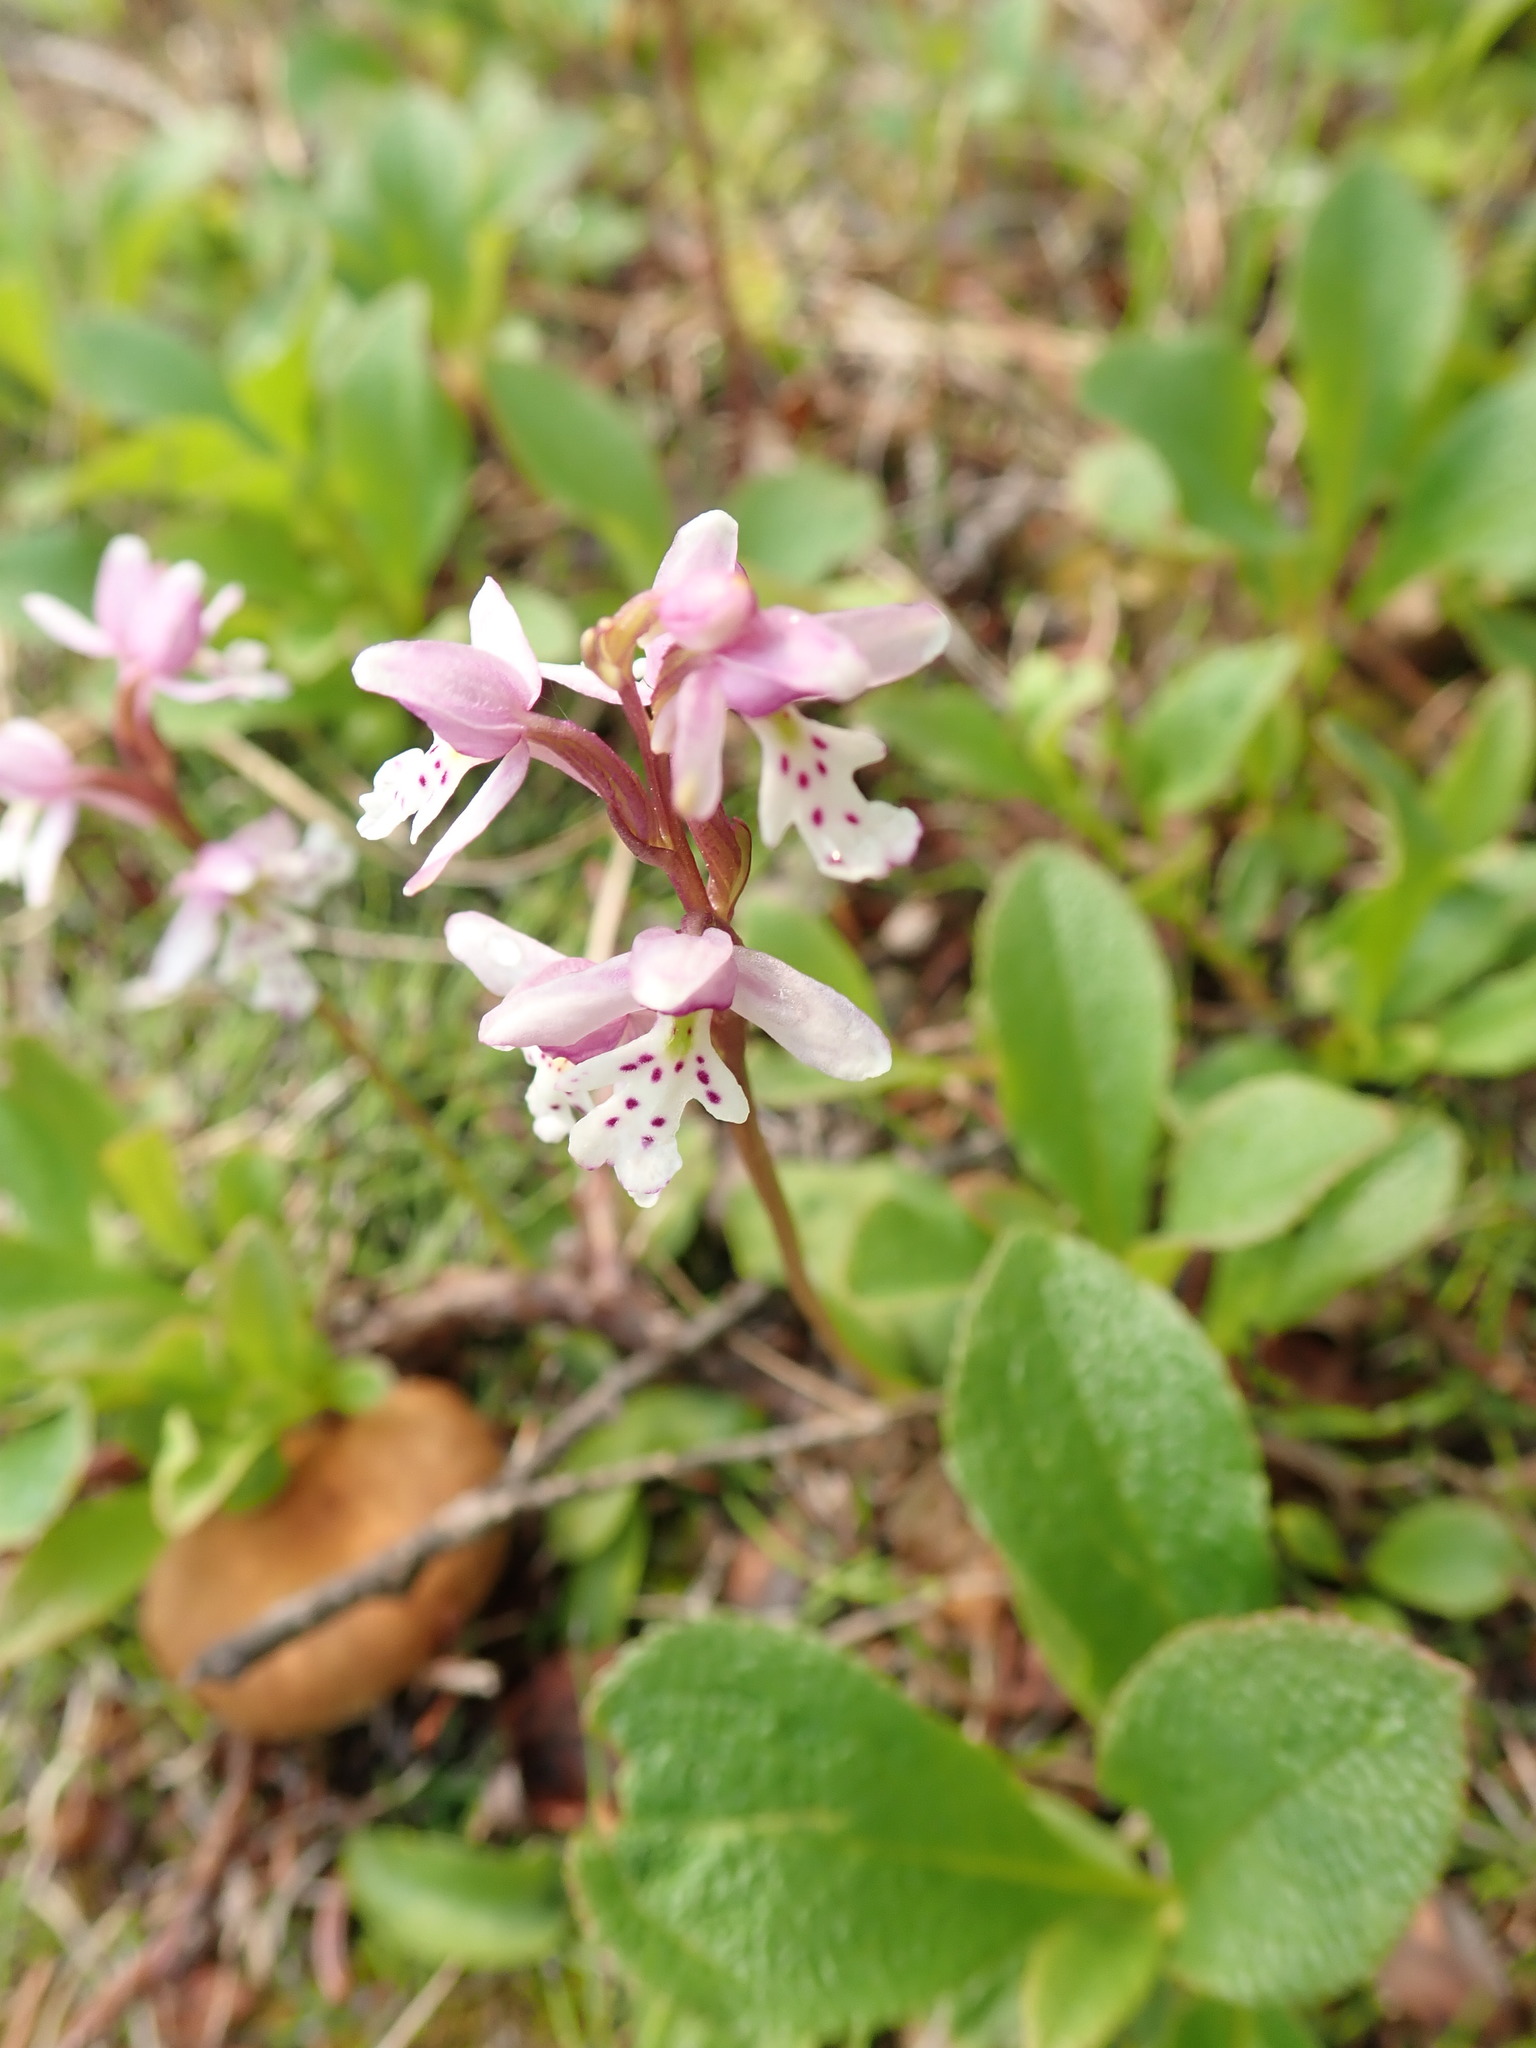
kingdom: Plantae
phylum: Tracheophyta
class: Liliopsida
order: Asparagales
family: Orchidaceae
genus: Galearis
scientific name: Galearis rotundifolia
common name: One-leaved orchis
